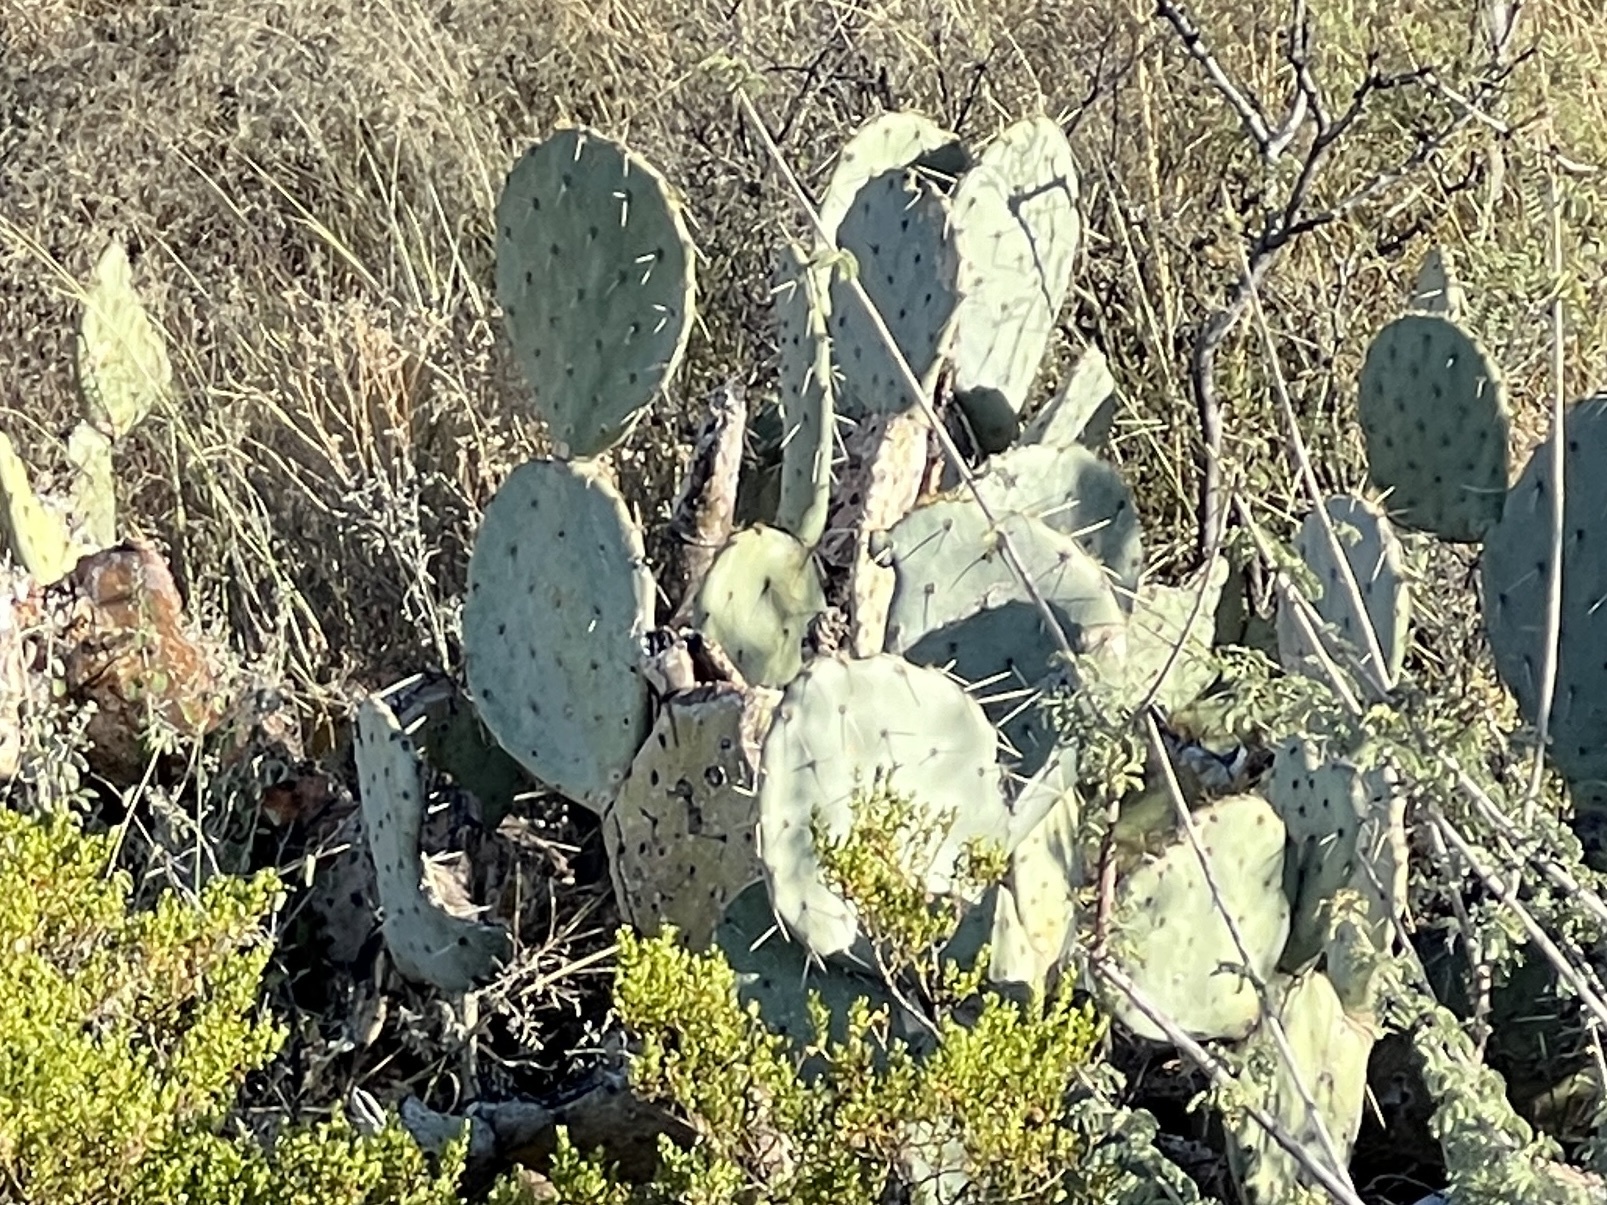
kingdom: Plantae
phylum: Tracheophyta
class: Magnoliopsida
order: Caryophyllales
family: Cactaceae
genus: Opuntia
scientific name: Opuntia engelmannii
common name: Cactus-apple
